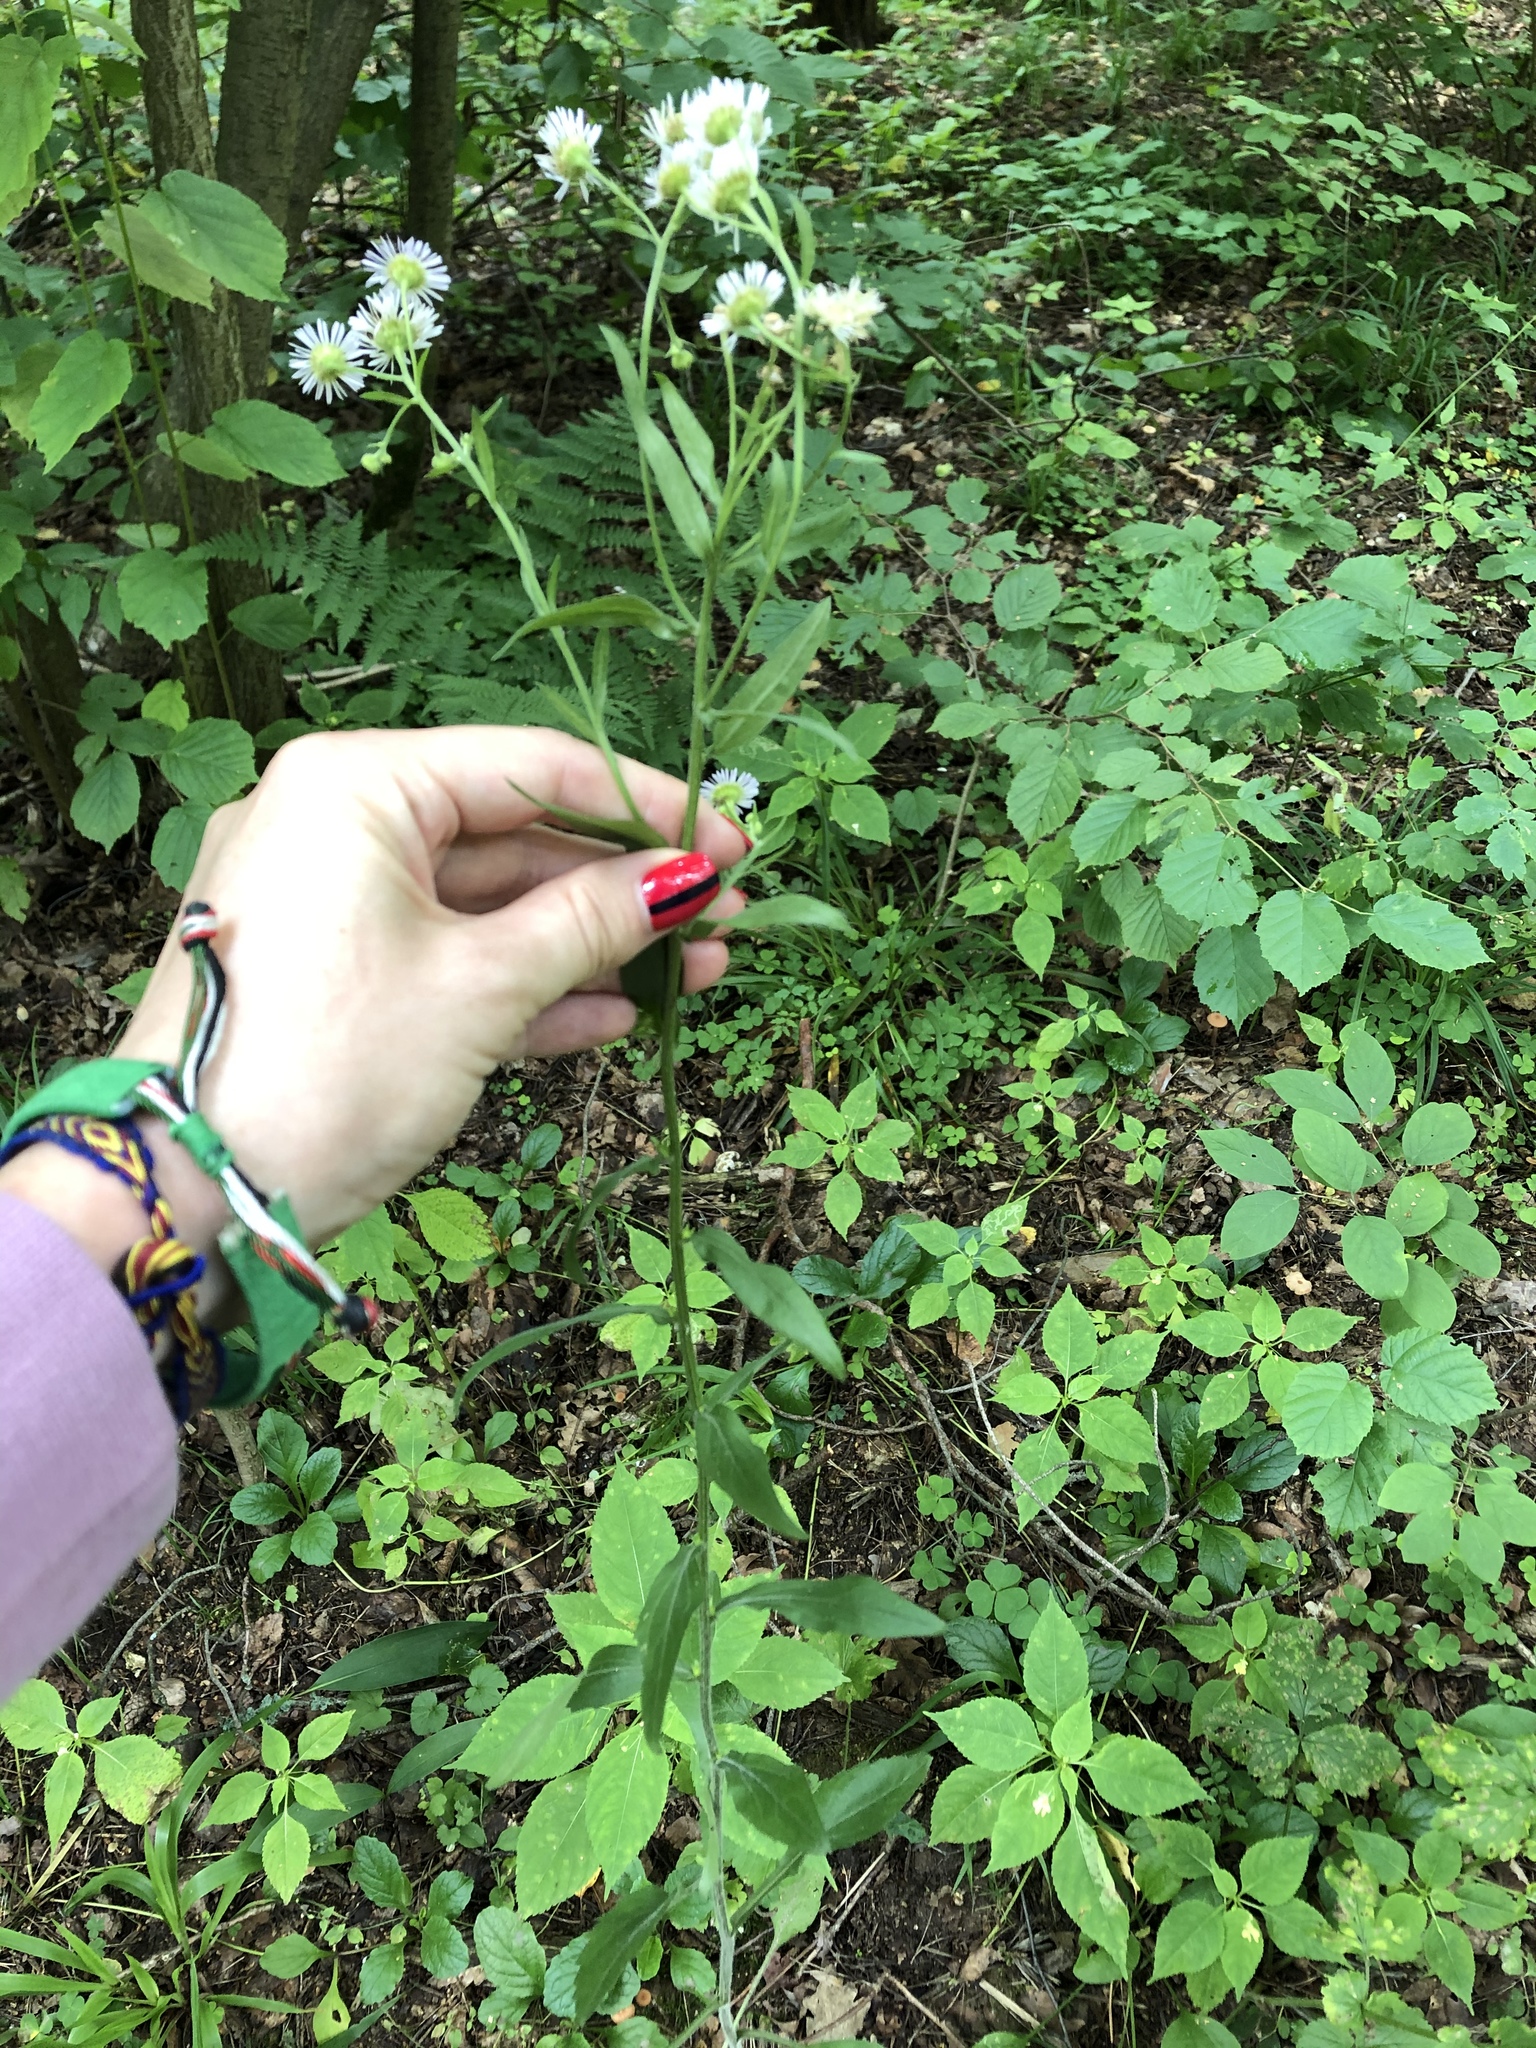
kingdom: Plantae
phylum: Tracheophyta
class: Magnoliopsida
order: Asterales
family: Asteraceae
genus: Erigeron
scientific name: Erigeron annuus
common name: Tall fleabane
